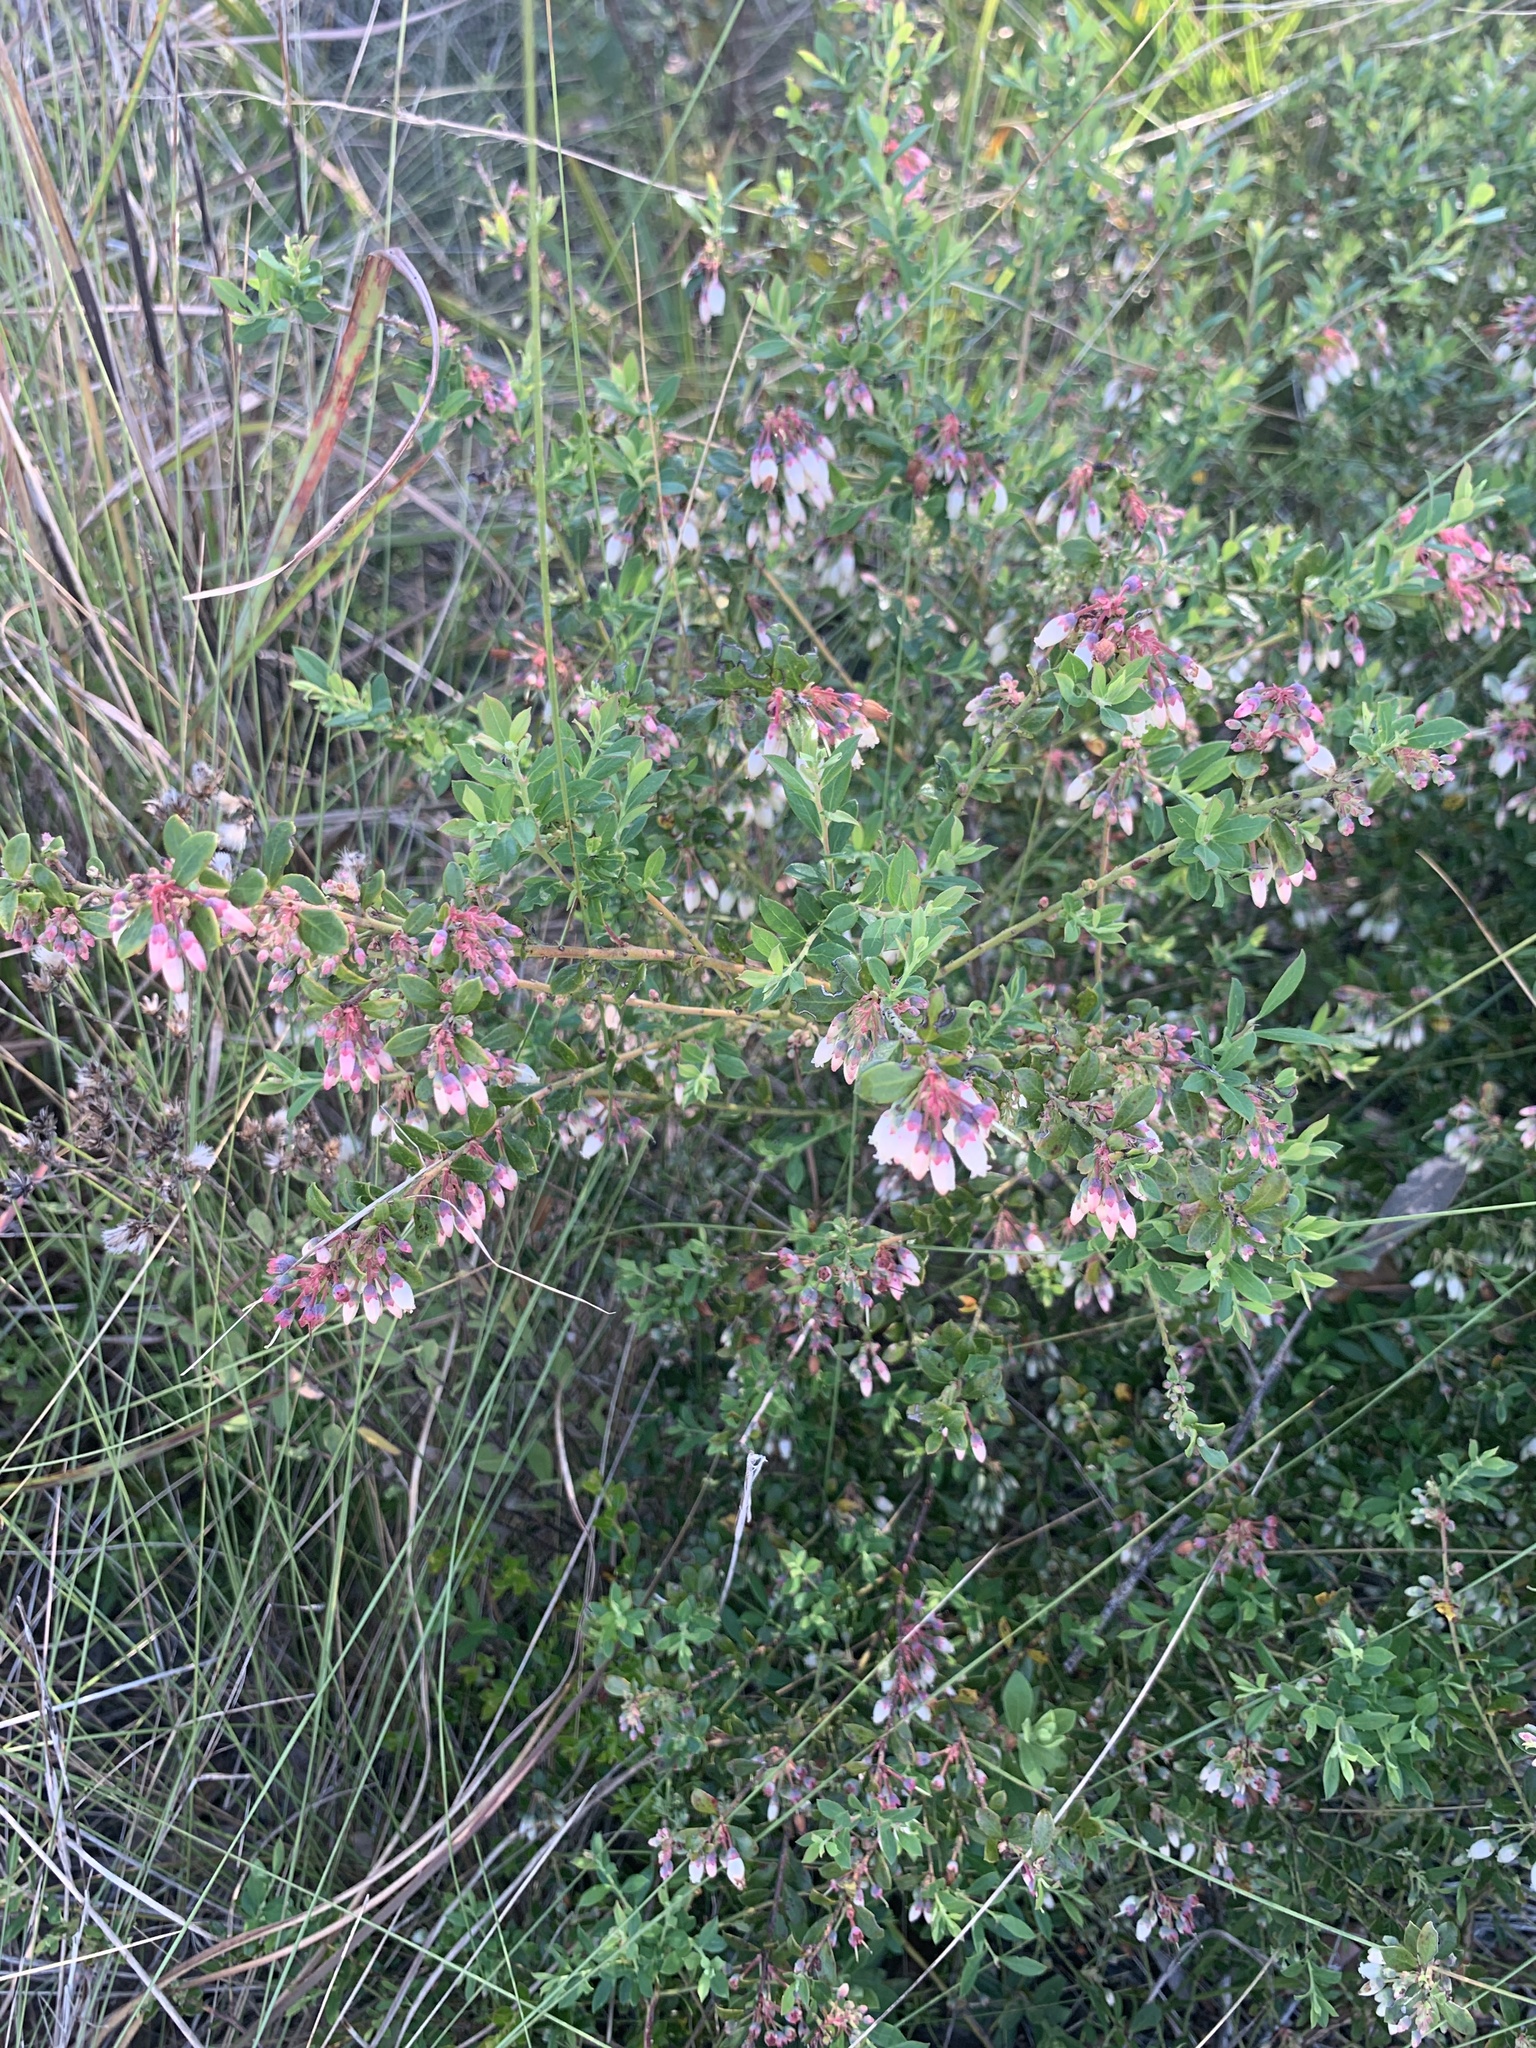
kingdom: Plantae
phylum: Tracheophyta
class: Magnoliopsida
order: Ericales
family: Ericaceae
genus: Vaccinium
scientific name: Vaccinium darrowii
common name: Darrow's blueberry
